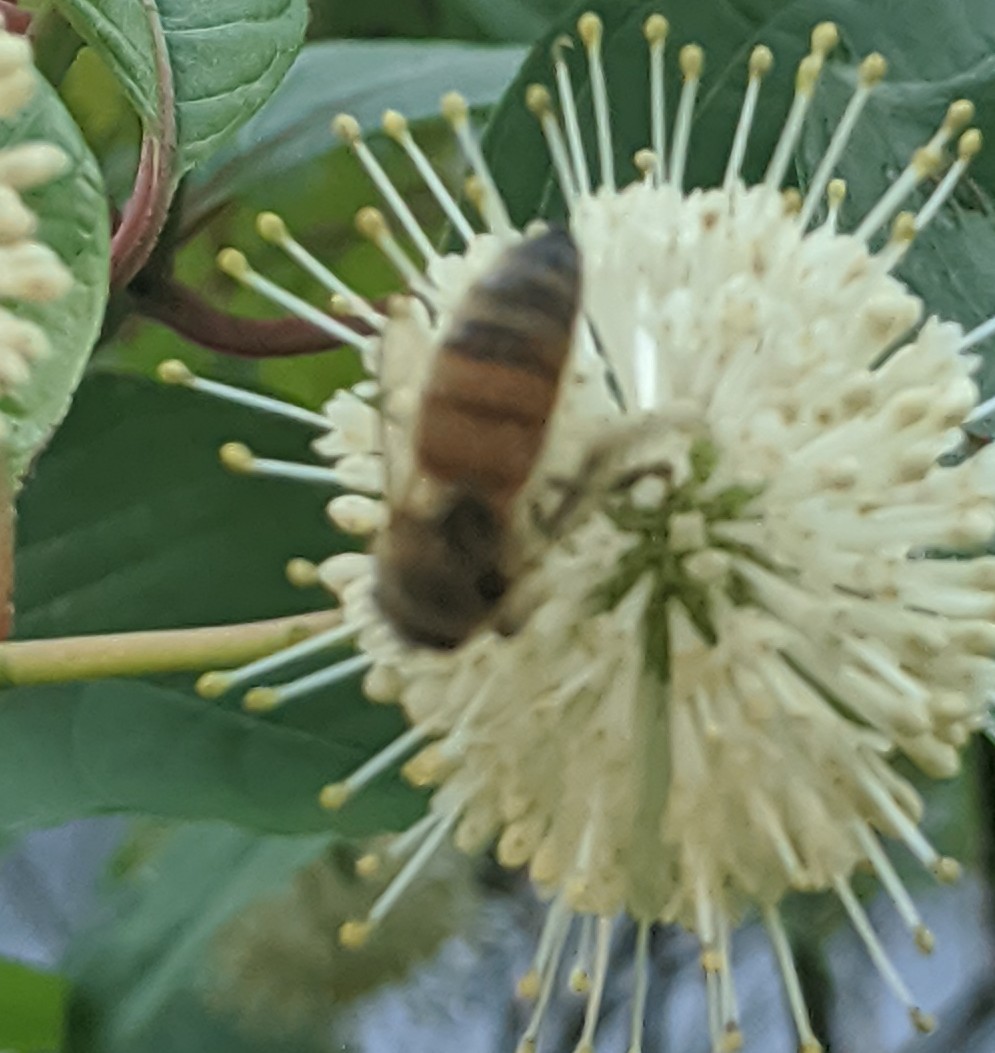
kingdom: Animalia
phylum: Arthropoda
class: Insecta
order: Hymenoptera
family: Apidae
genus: Apis
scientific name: Apis mellifera
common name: Honey bee
